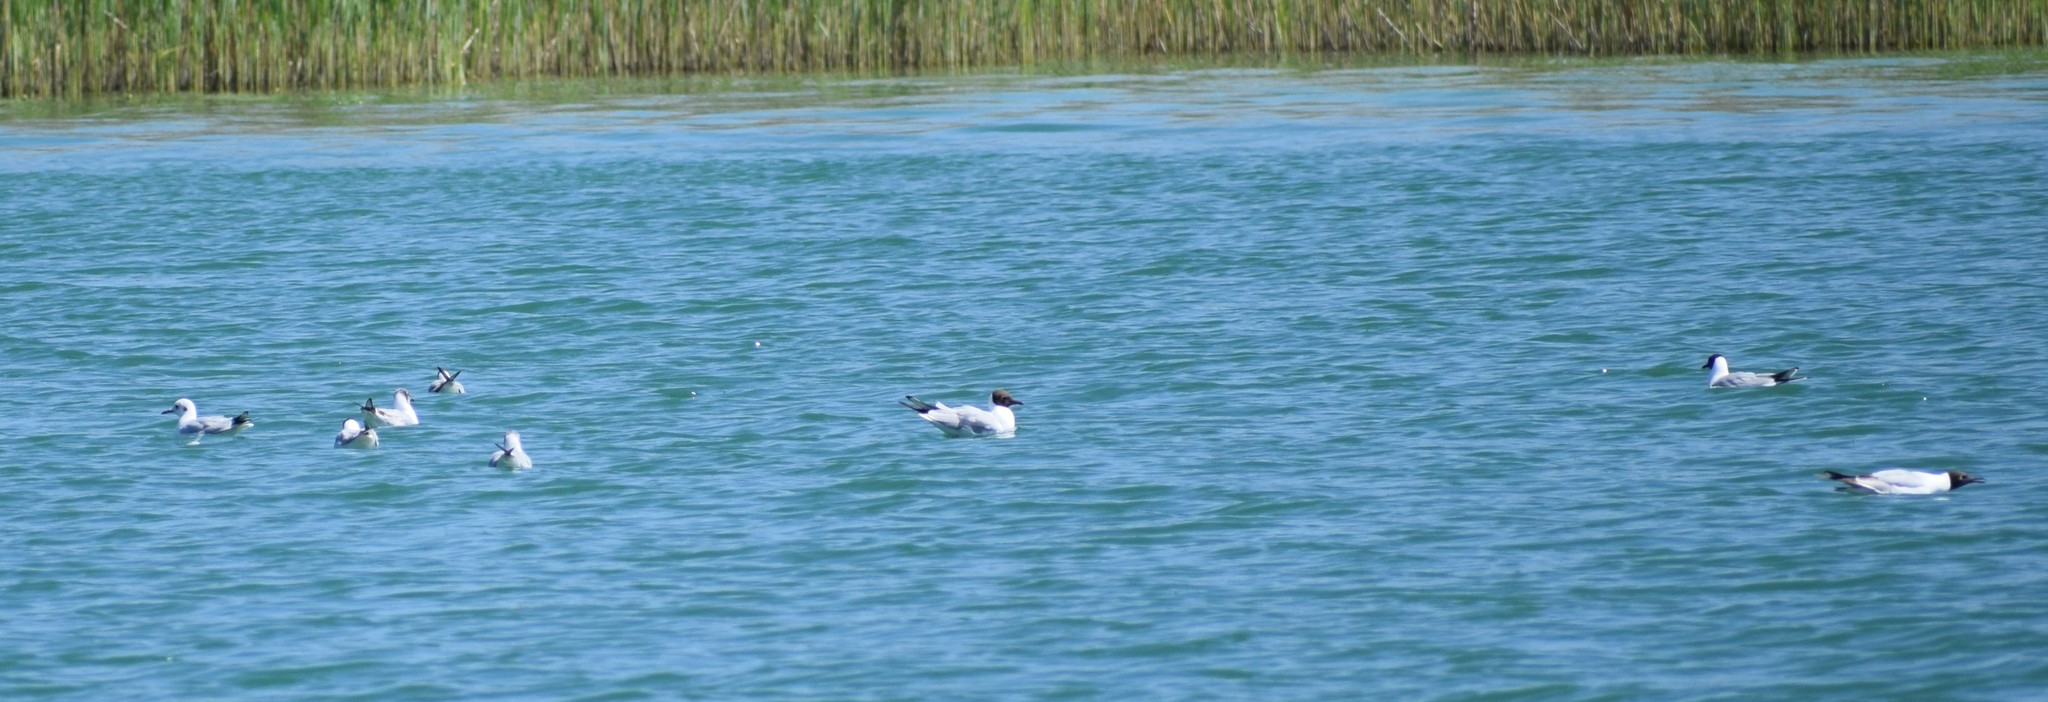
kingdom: Animalia
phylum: Chordata
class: Aves
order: Charadriiformes
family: Laridae
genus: Chroicocephalus
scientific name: Chroicocephalus ridibundus
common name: Black-headed gull
